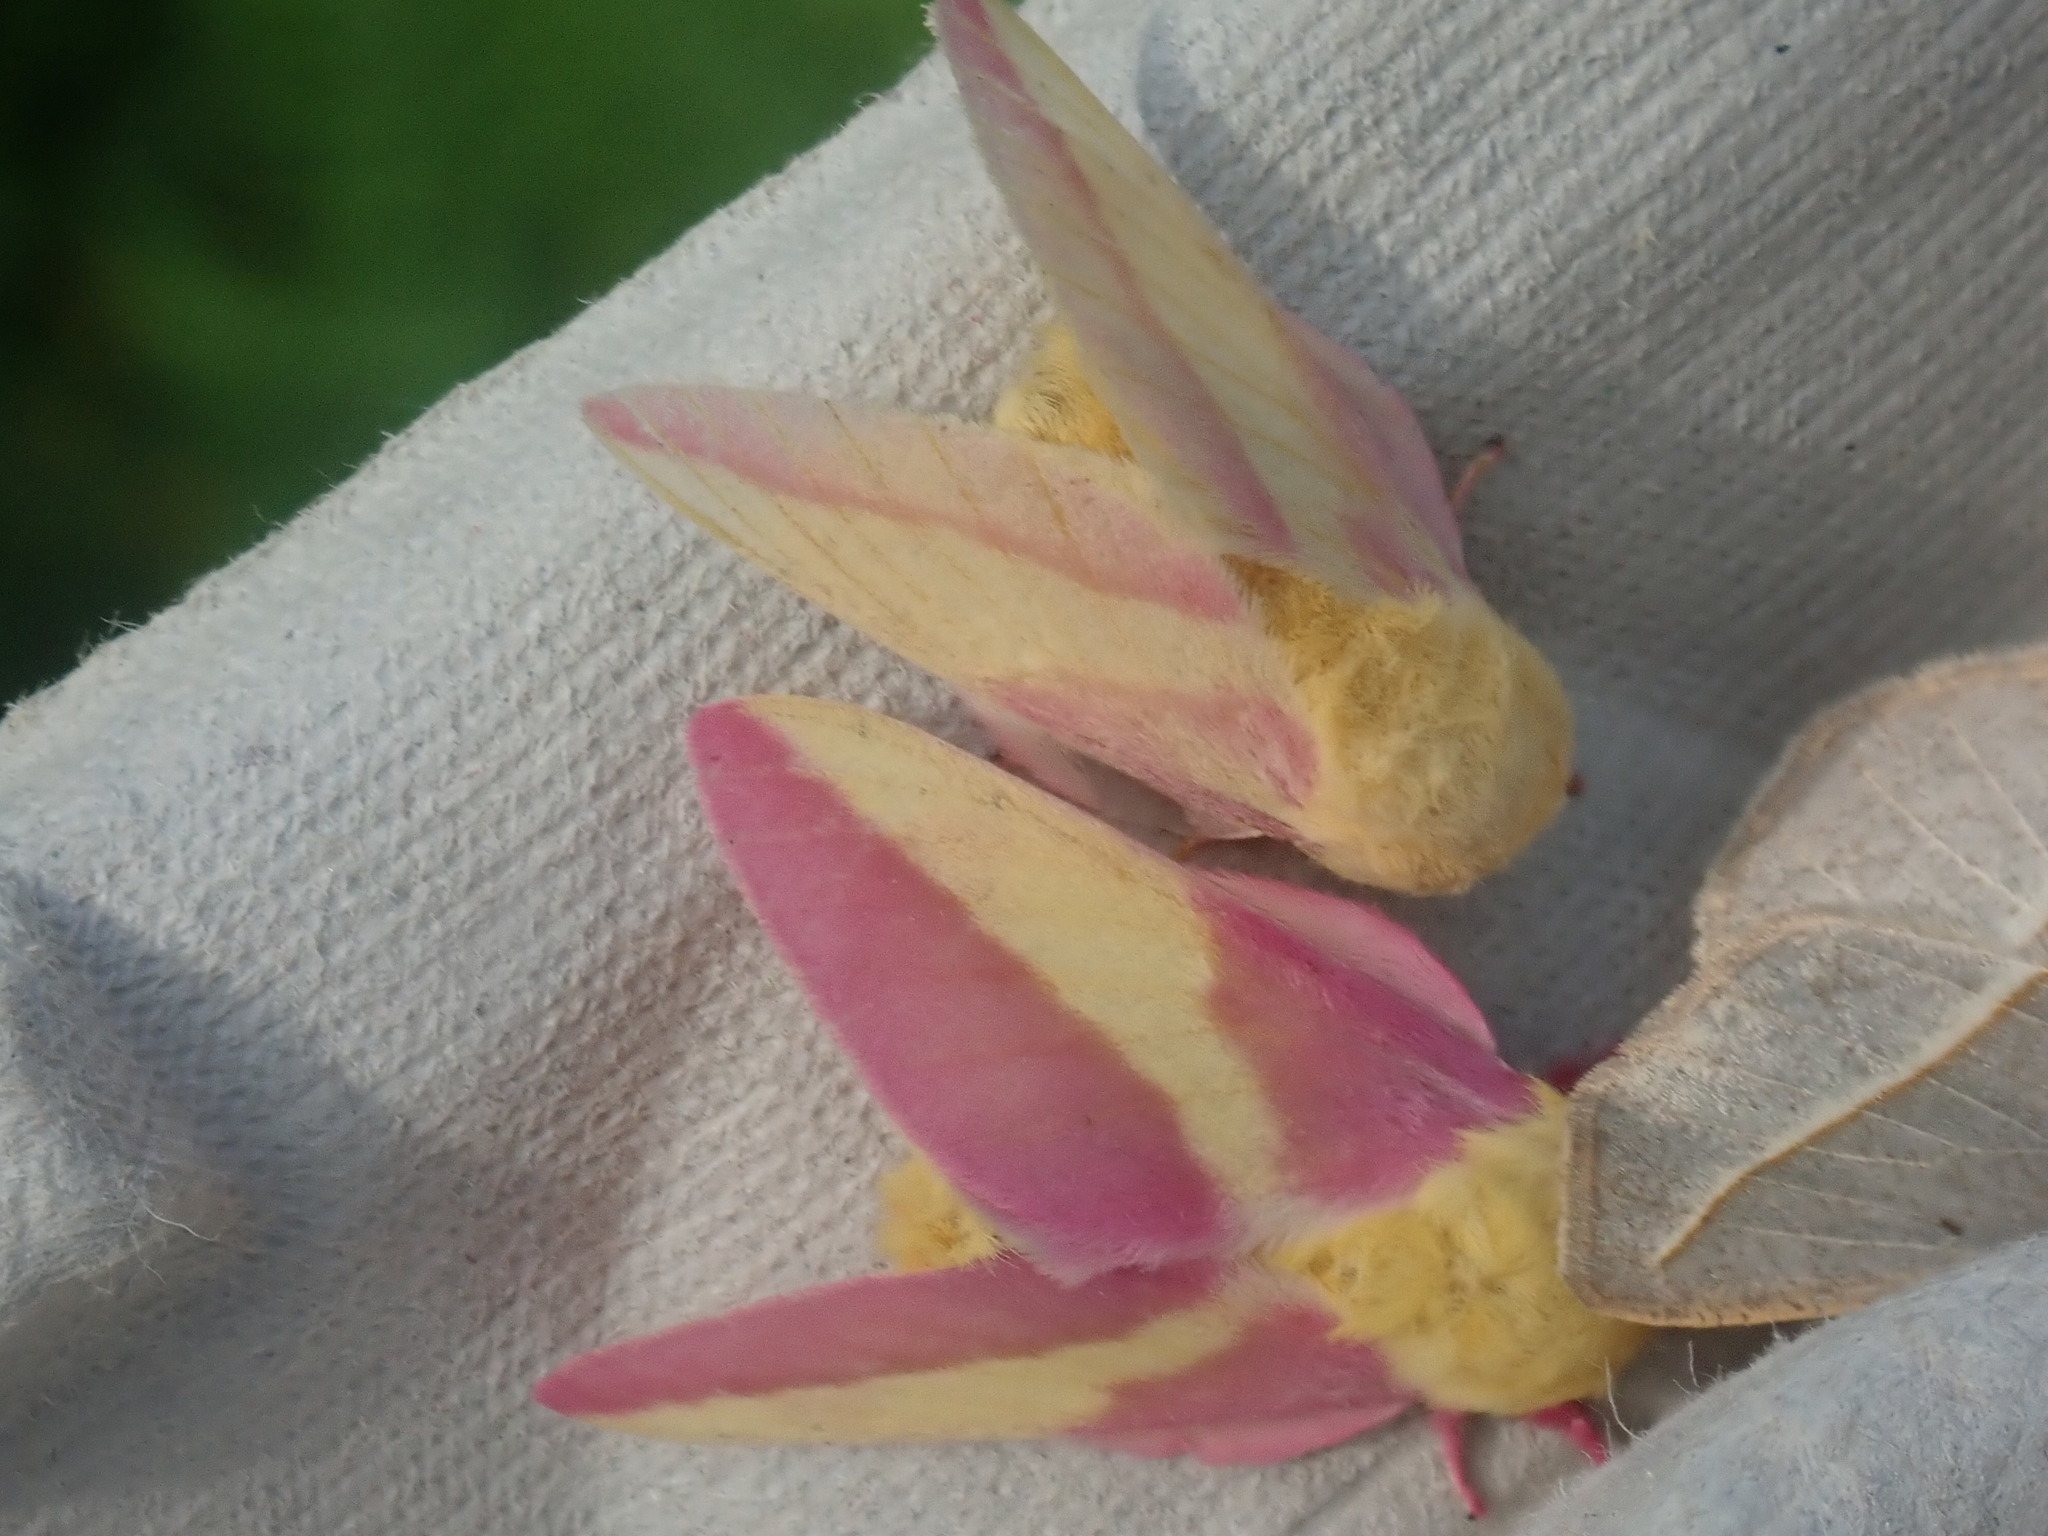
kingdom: Animalia
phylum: Arthropoda
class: Insecta
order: Lepidoptera
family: Saturniidae
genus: Dryocampa
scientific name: Dryocampa rubicunda
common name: Rosy maple moth
